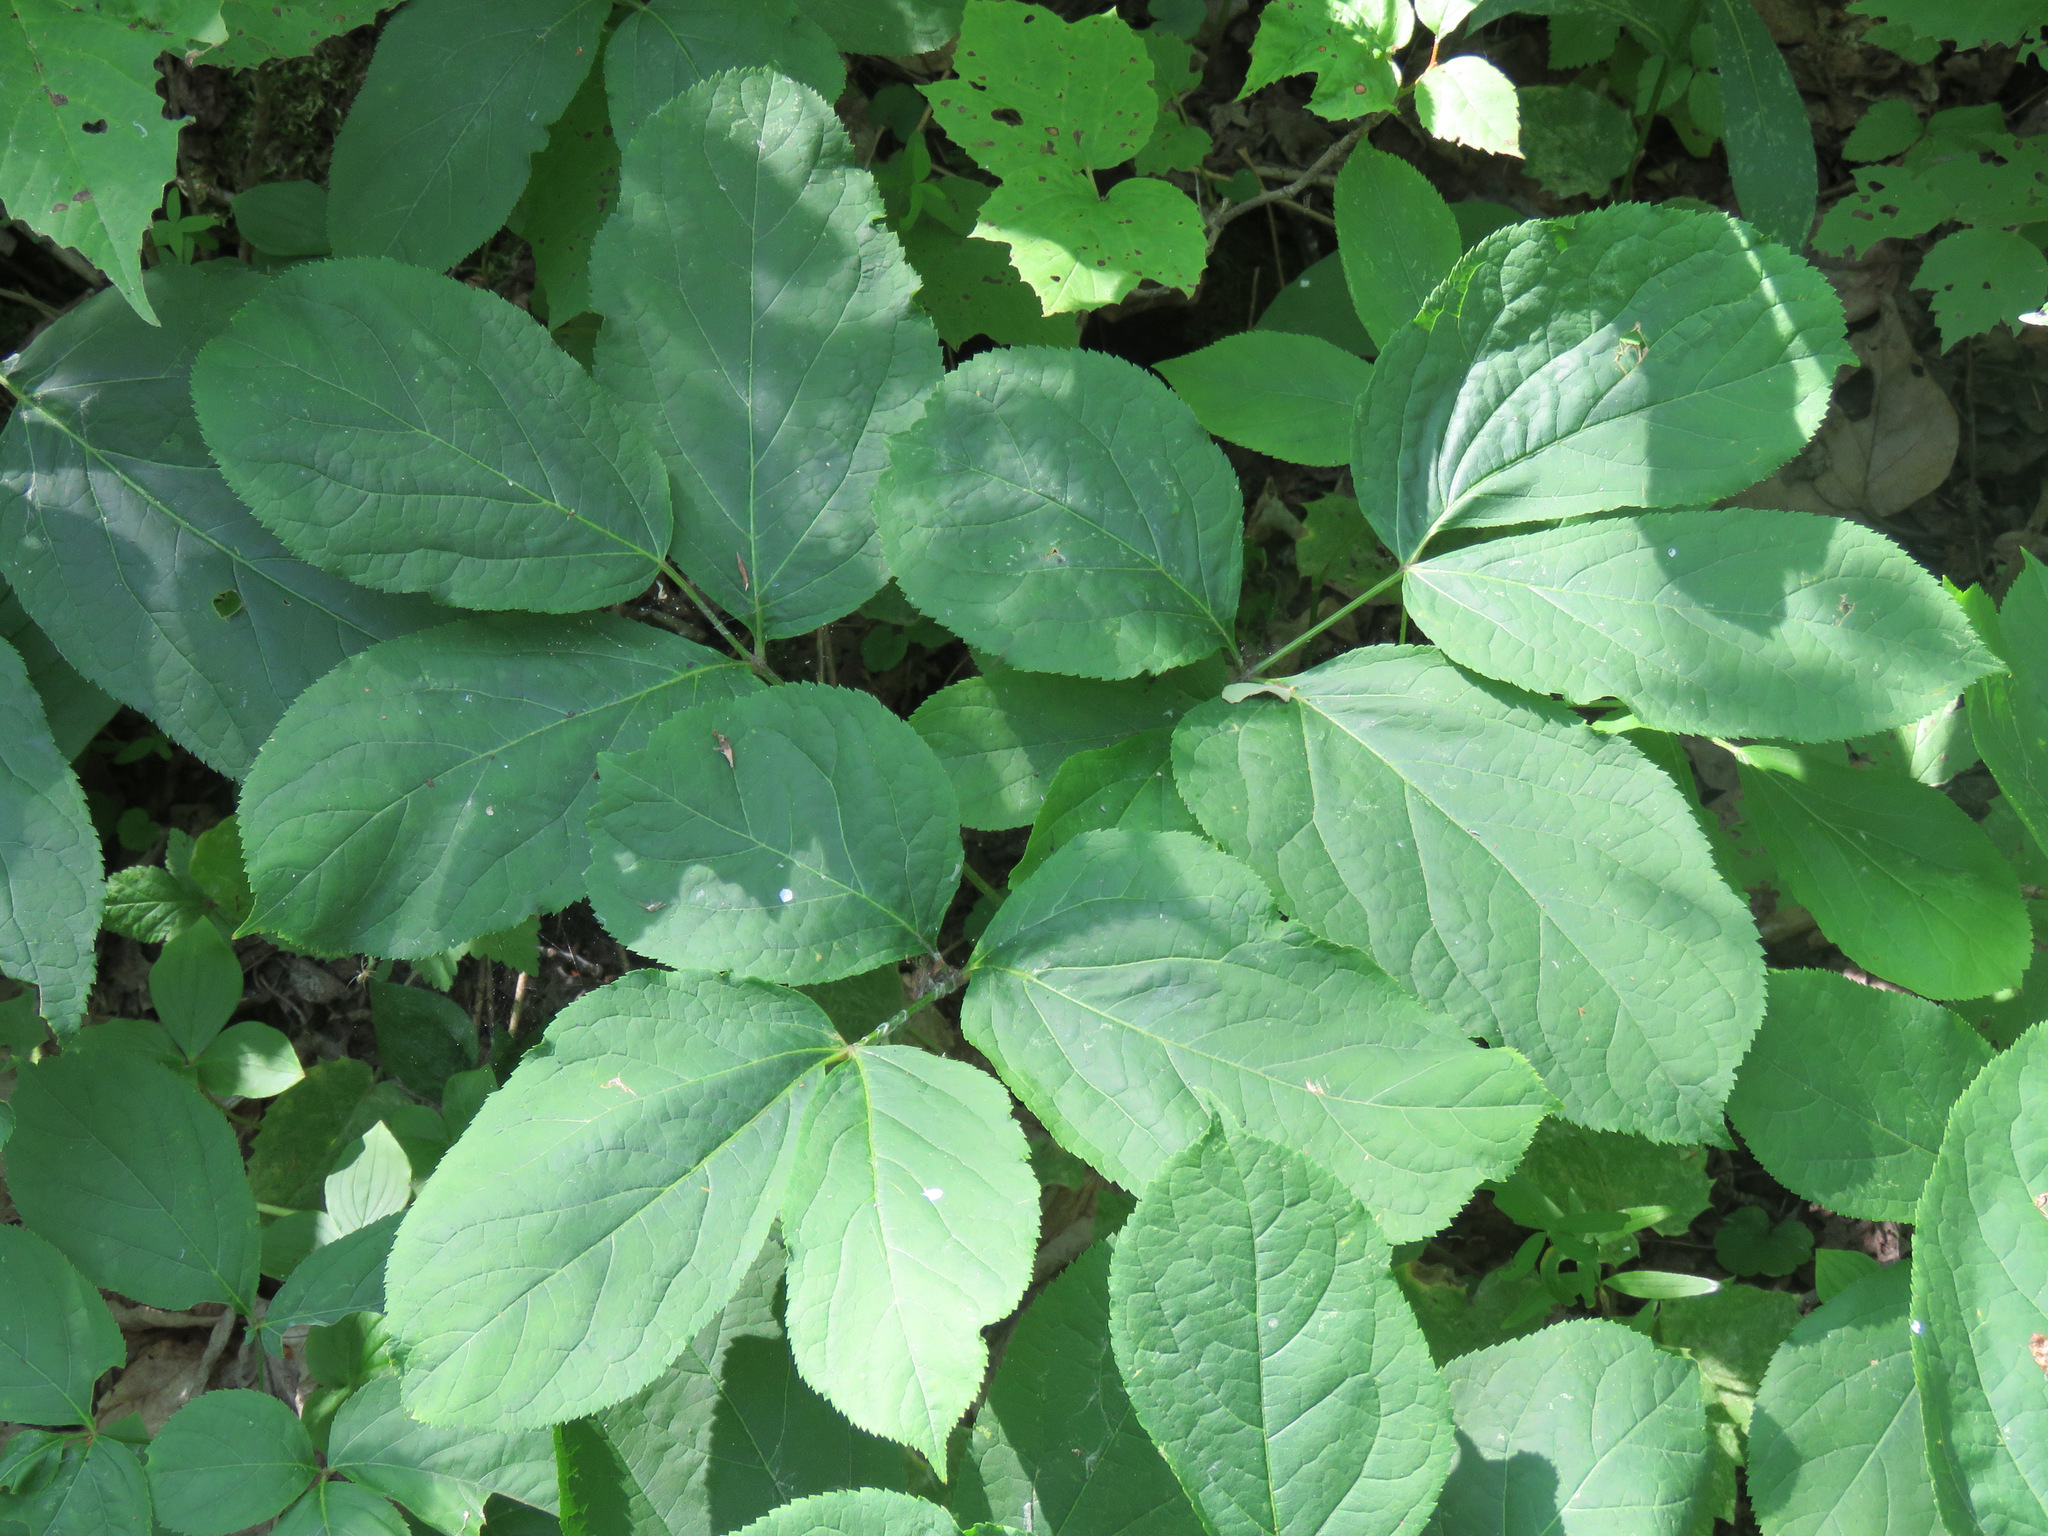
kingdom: Plantae
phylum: Tracheophyta
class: Magnoliopsida
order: Apiales
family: Araliaceae
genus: Aralia
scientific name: Aralia nudicaulis
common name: Wild sarsaparilla
